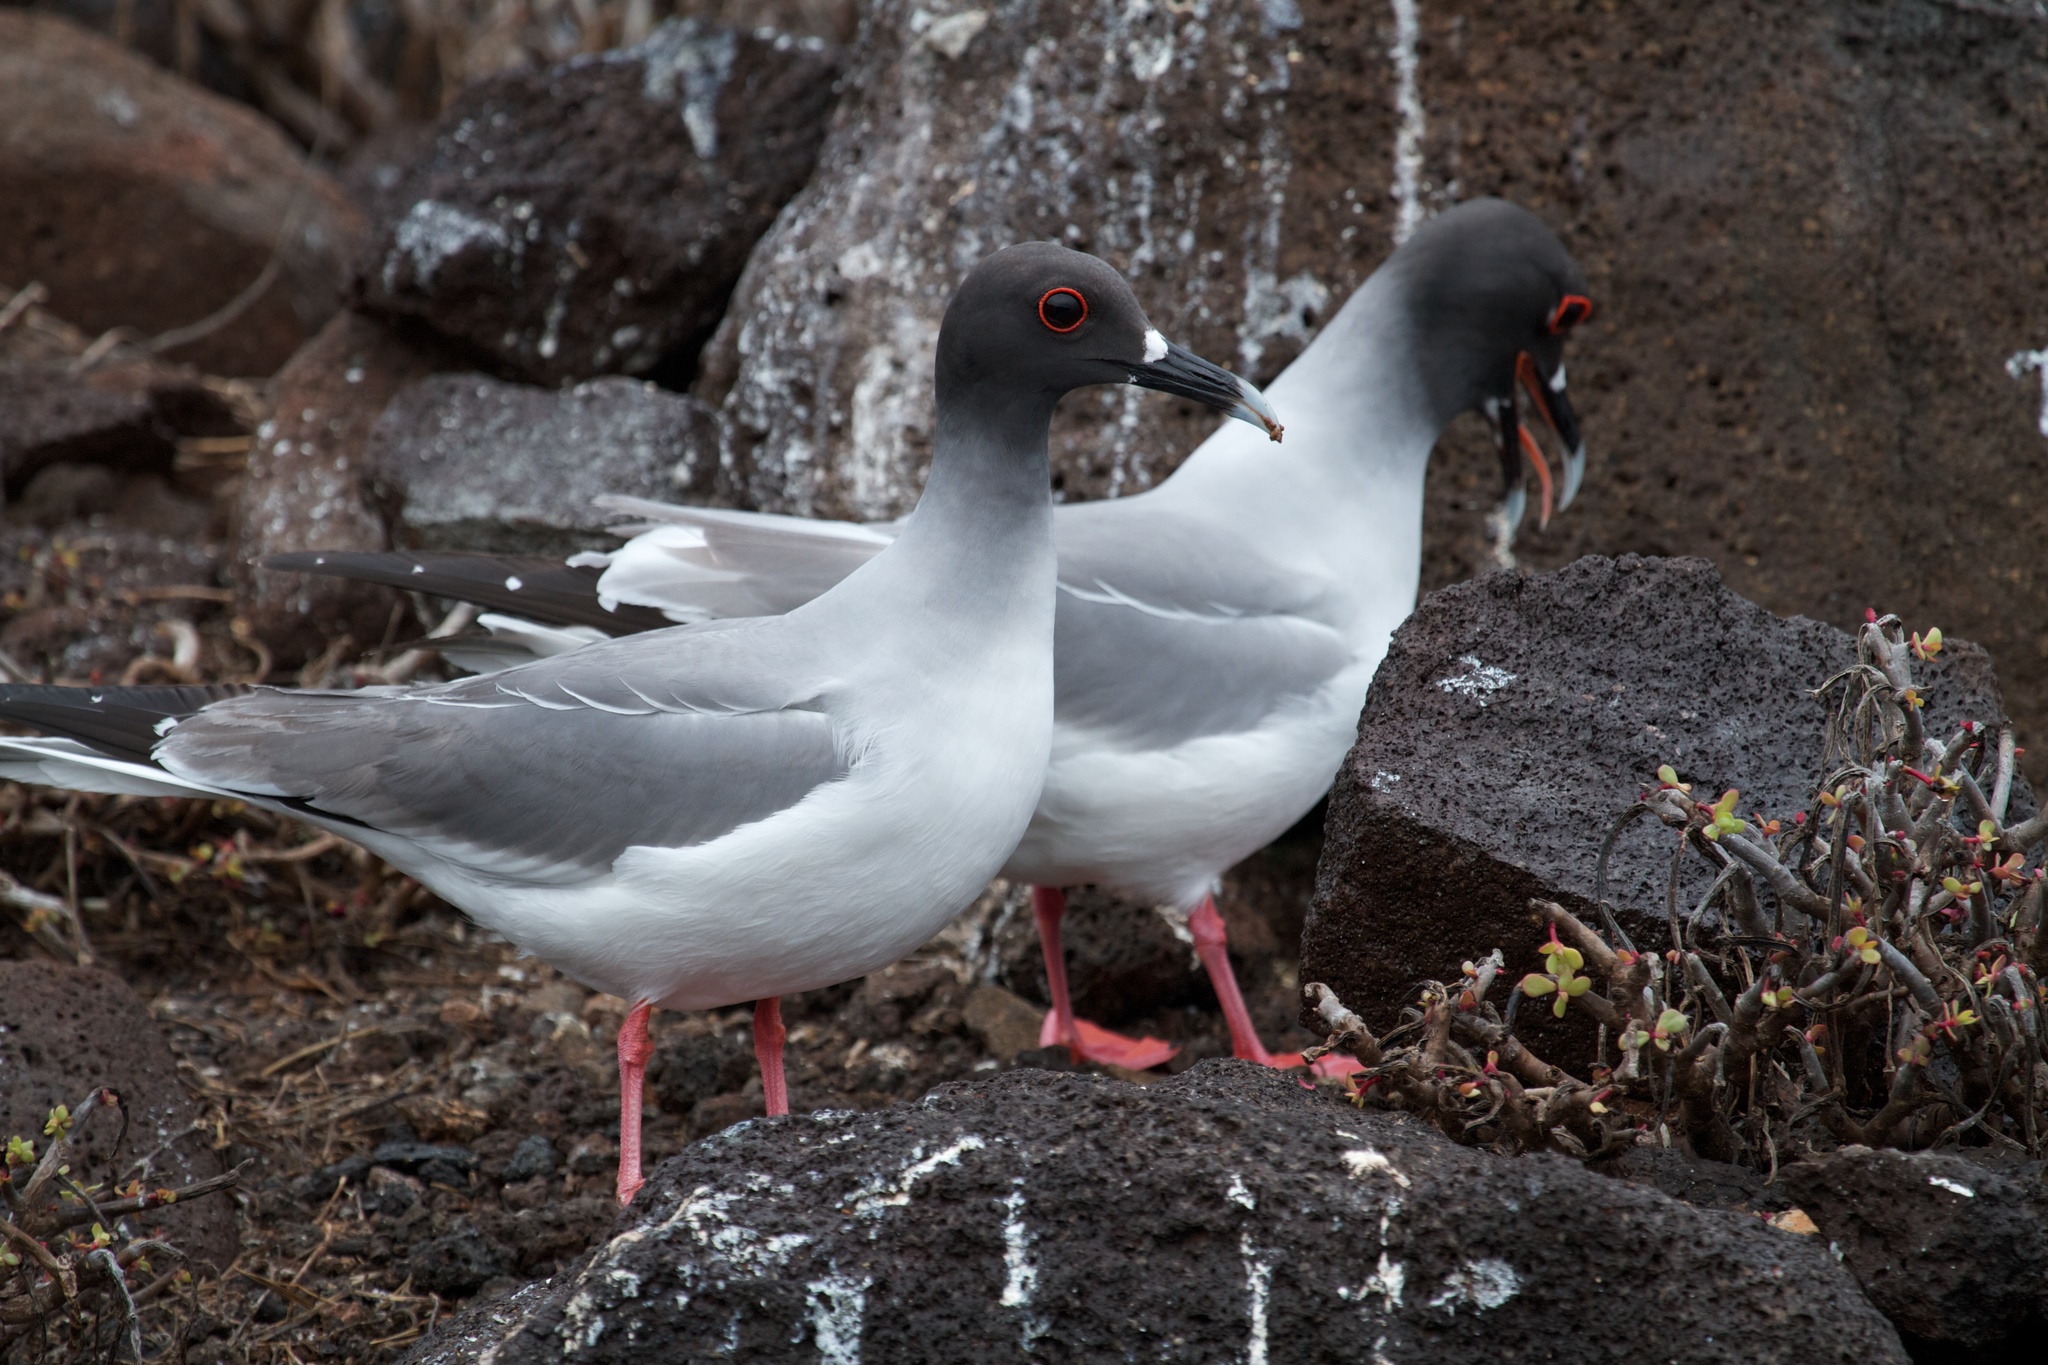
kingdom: Animalia
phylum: Chordata
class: Aves
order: Charadriiformes
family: Laridae
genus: Creagrus
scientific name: Creagrus furcatus
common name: Swallow-tailed gull
